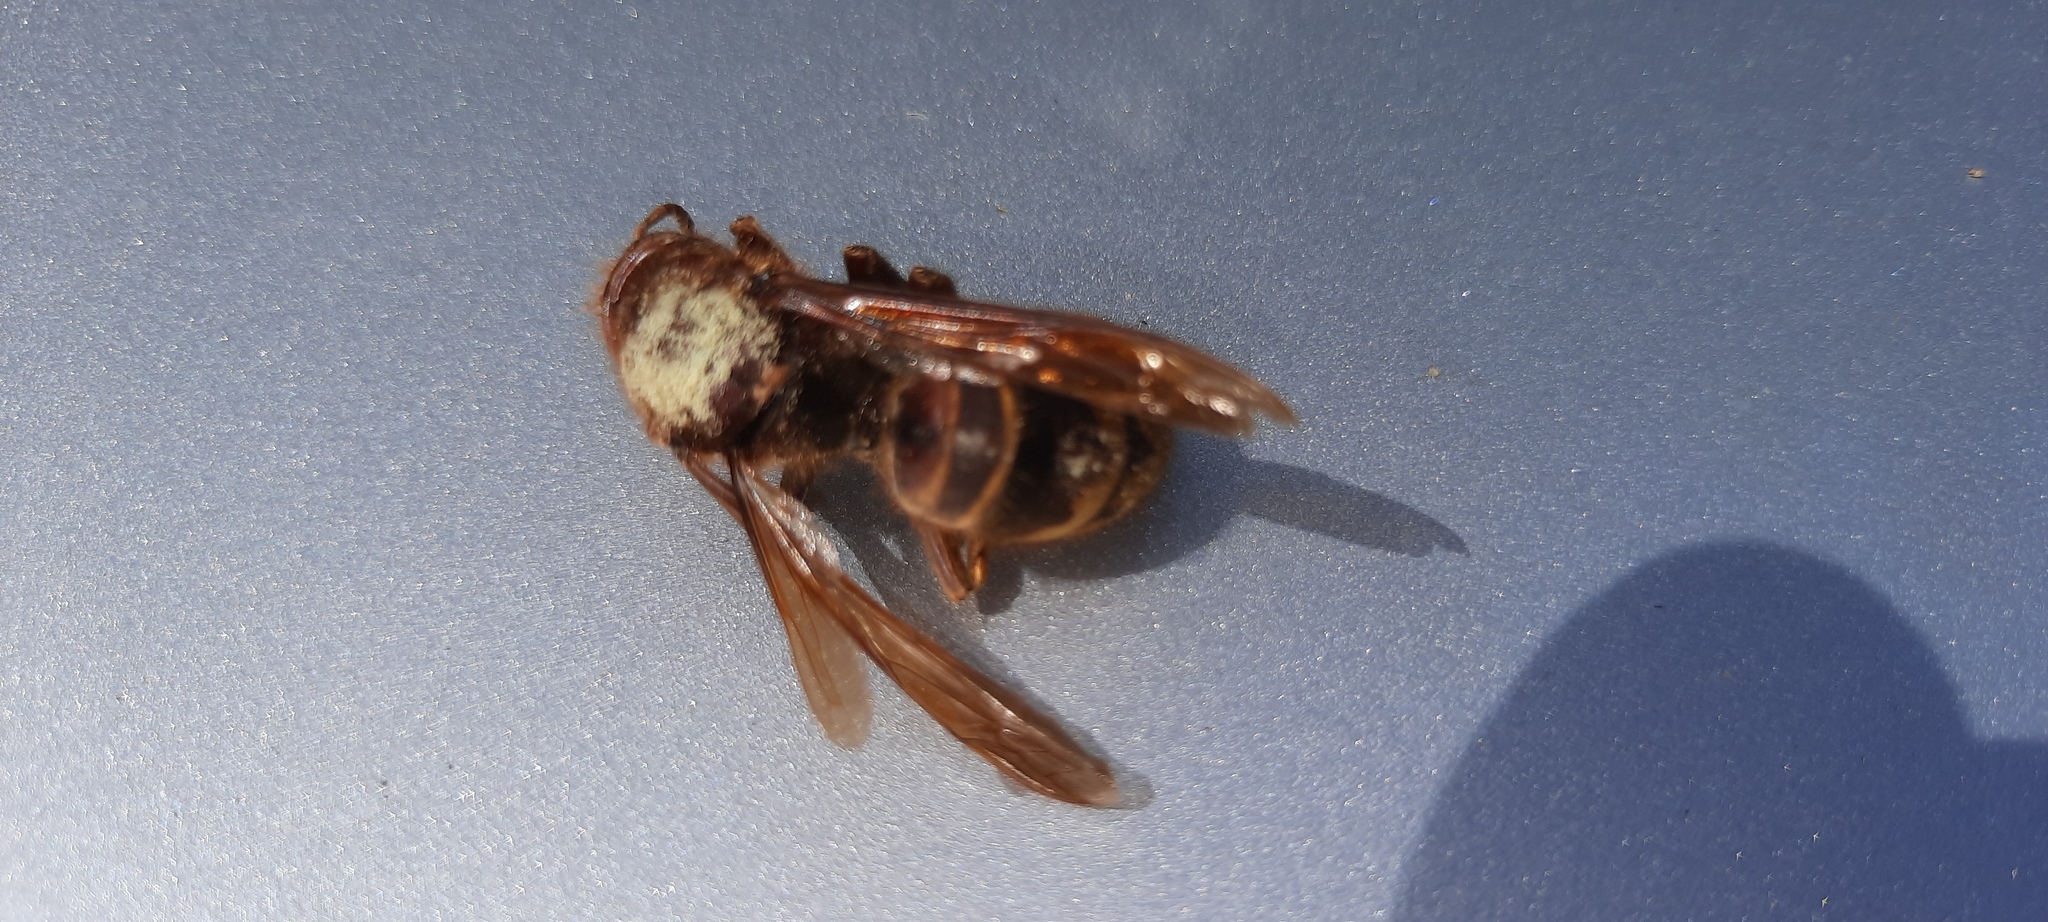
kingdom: Animalia
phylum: Arthropoda
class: Insecta
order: Hymenoptera
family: Vespidae
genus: Vespa
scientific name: Vespa crabro
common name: Hornet
